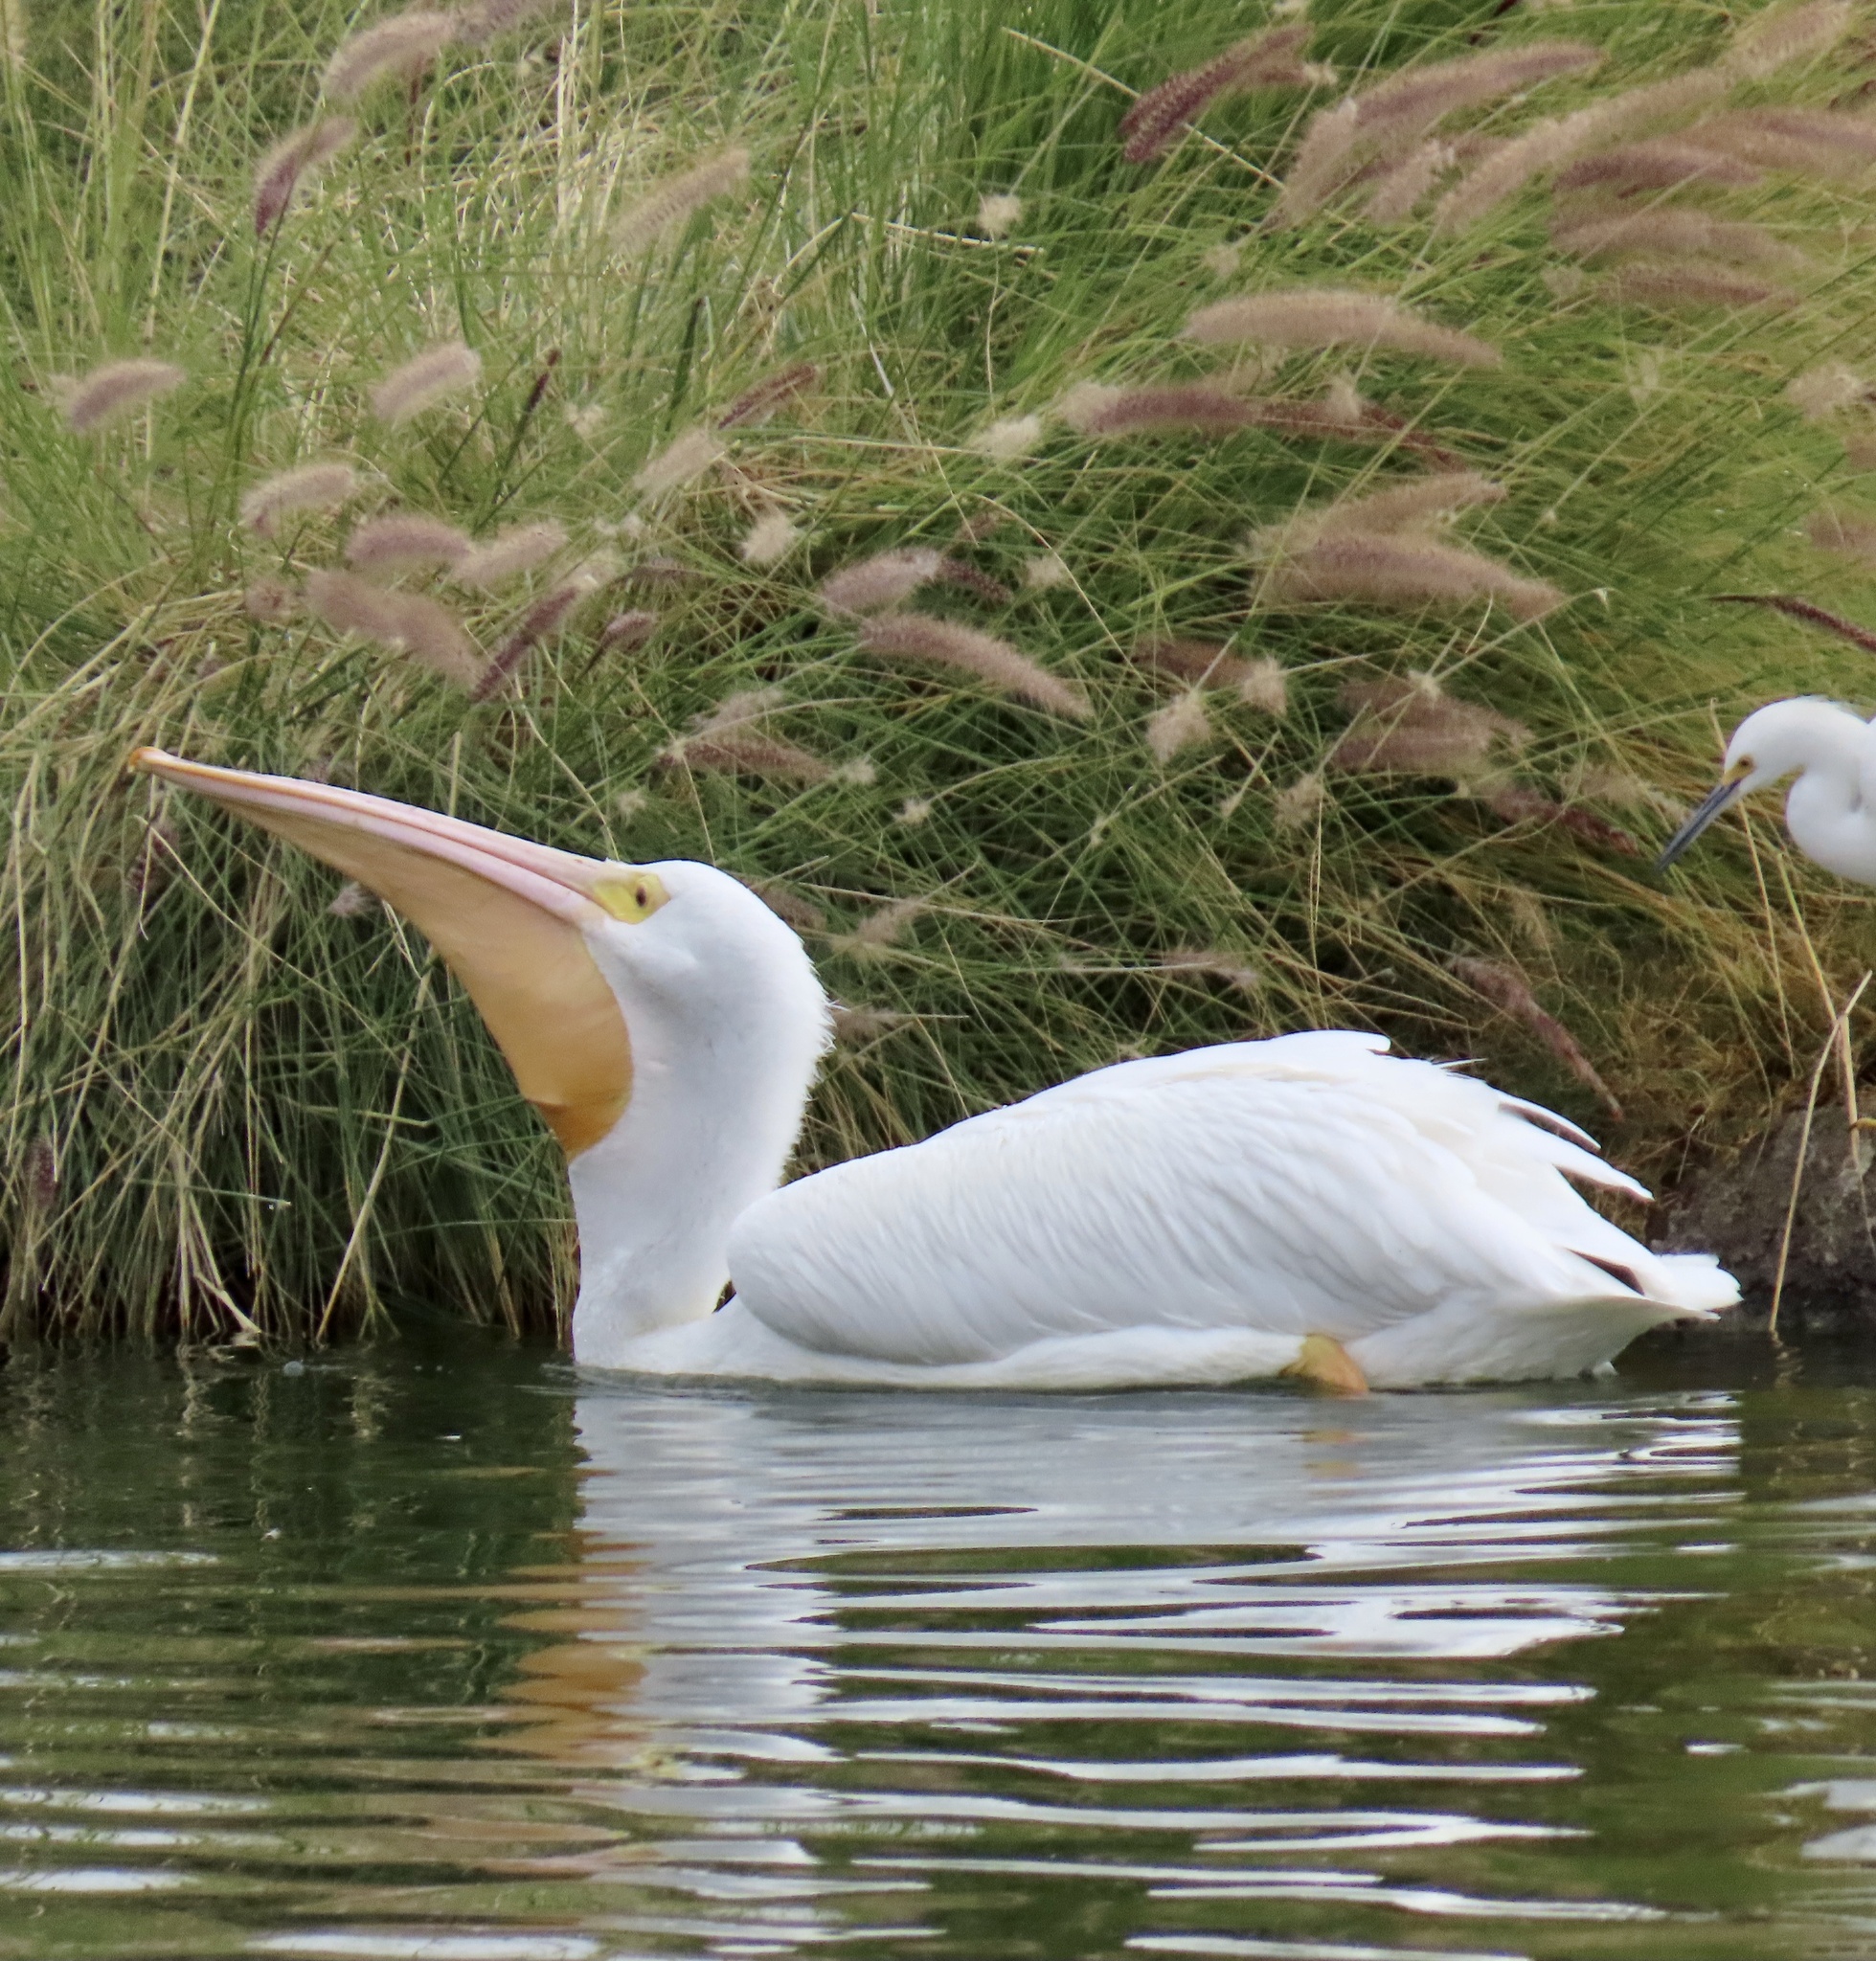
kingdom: Animalia
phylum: Chordata
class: Aves
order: Pelecaniformes
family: Pelecanidae
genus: Pelecanus
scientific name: Pelecanus erythrorhynchos
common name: American white pelican
